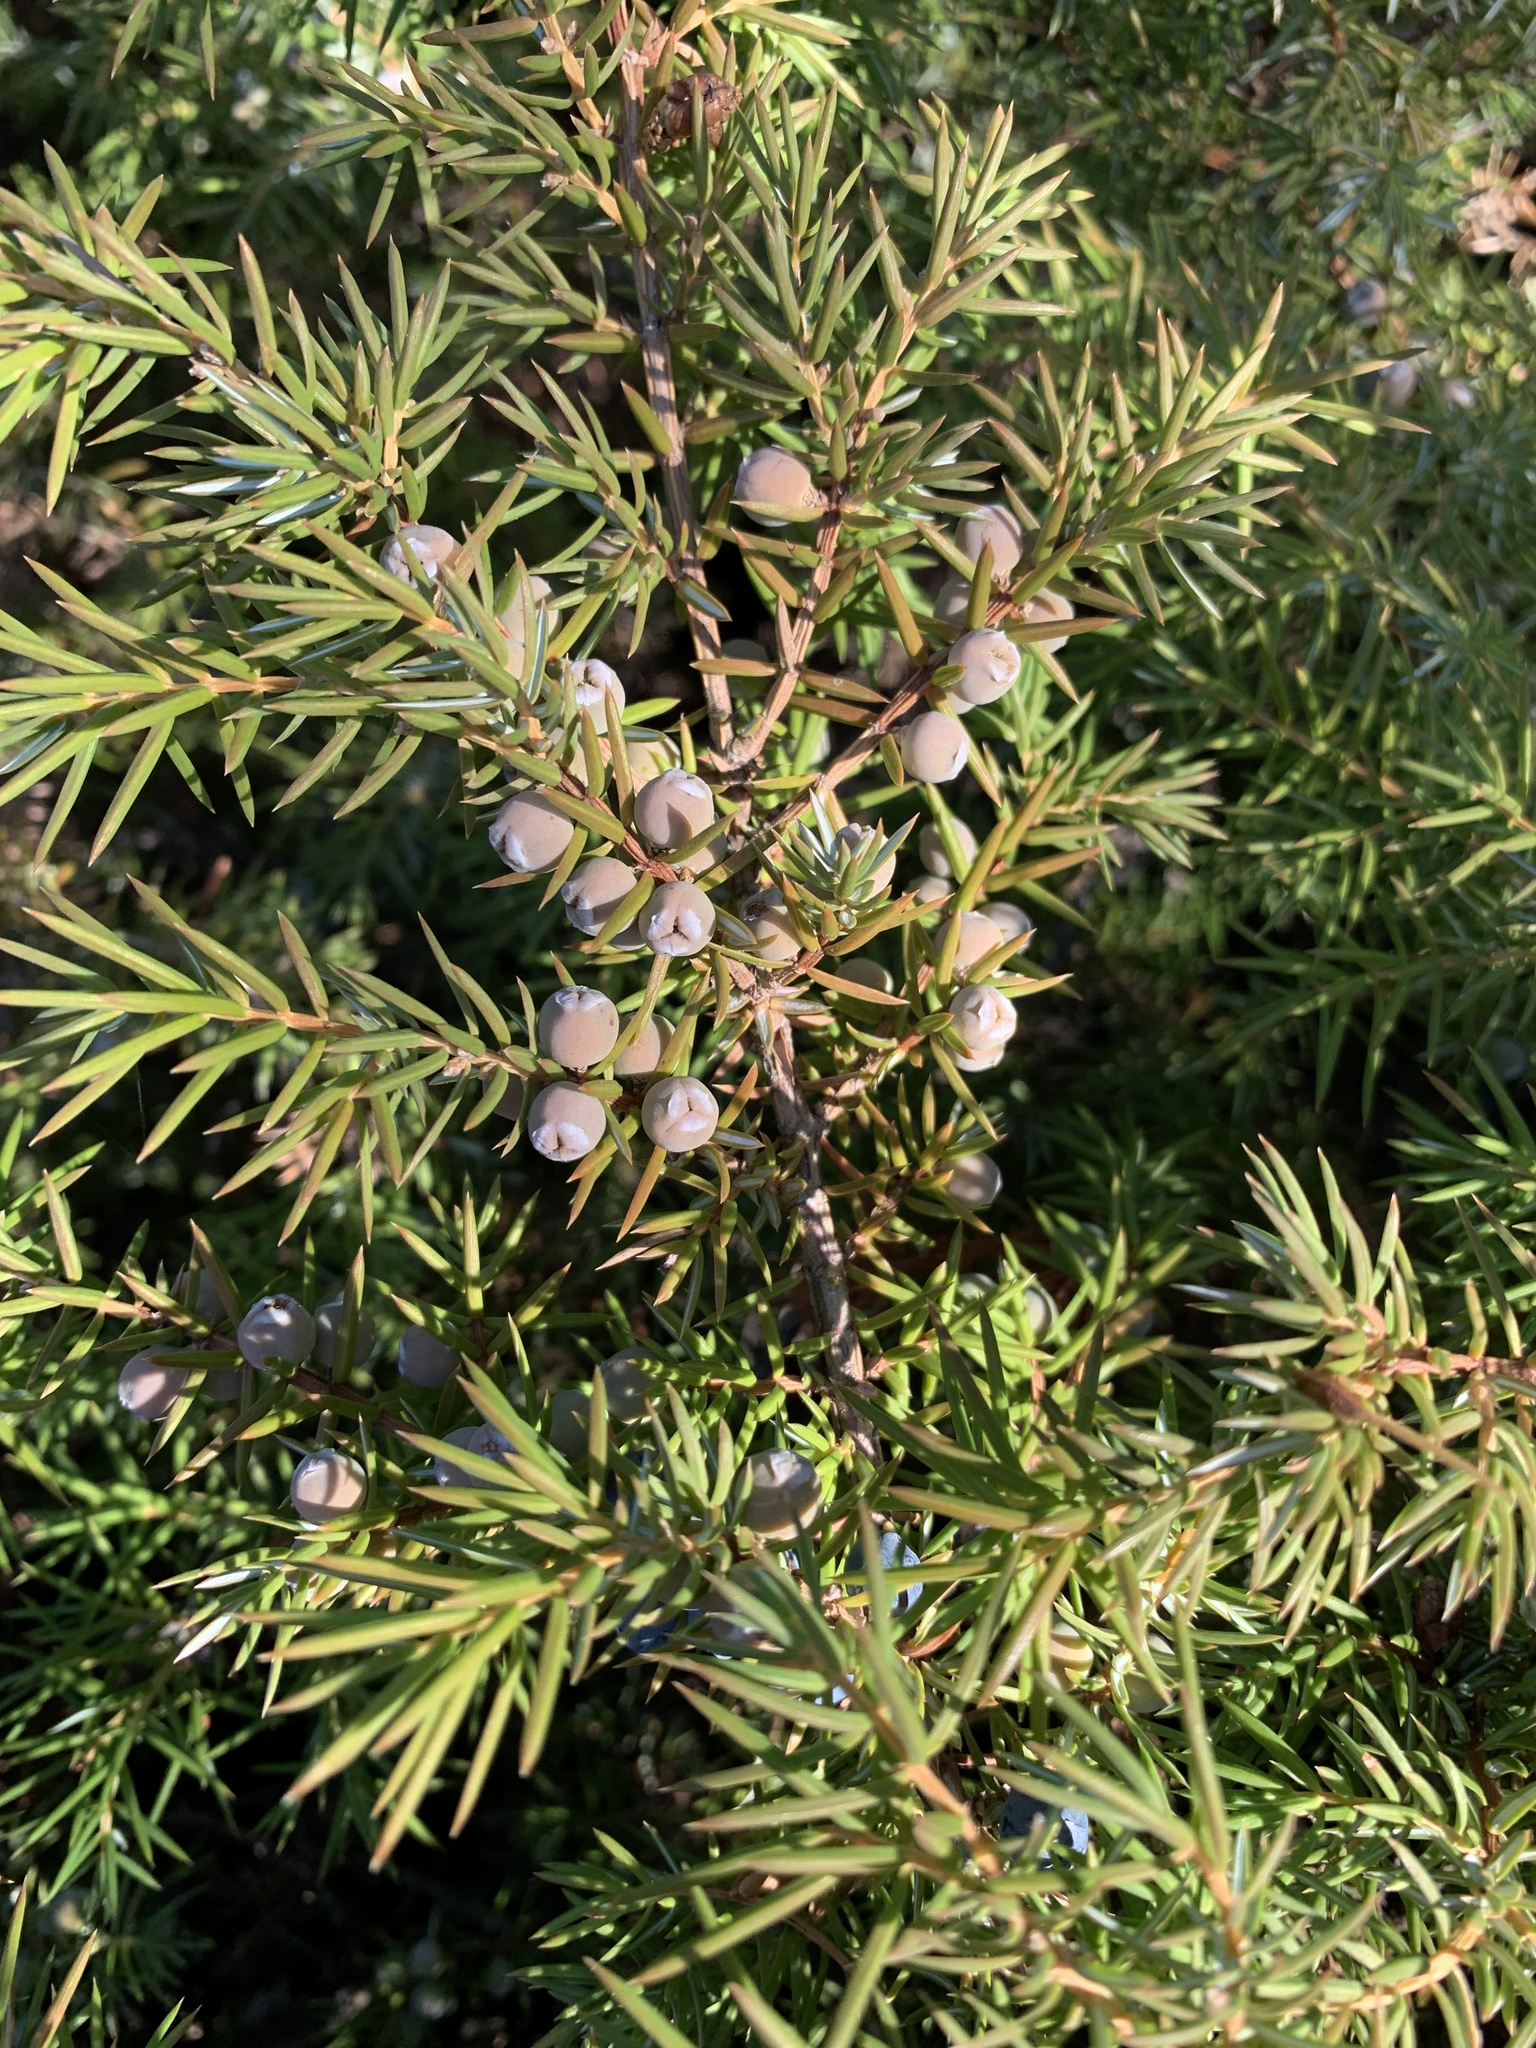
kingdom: Plantae
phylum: Tracheophyta
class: Pinopsida
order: Pinales
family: Cupressaceae
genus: Juniperus
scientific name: Juniperus communis
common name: Common juniper
